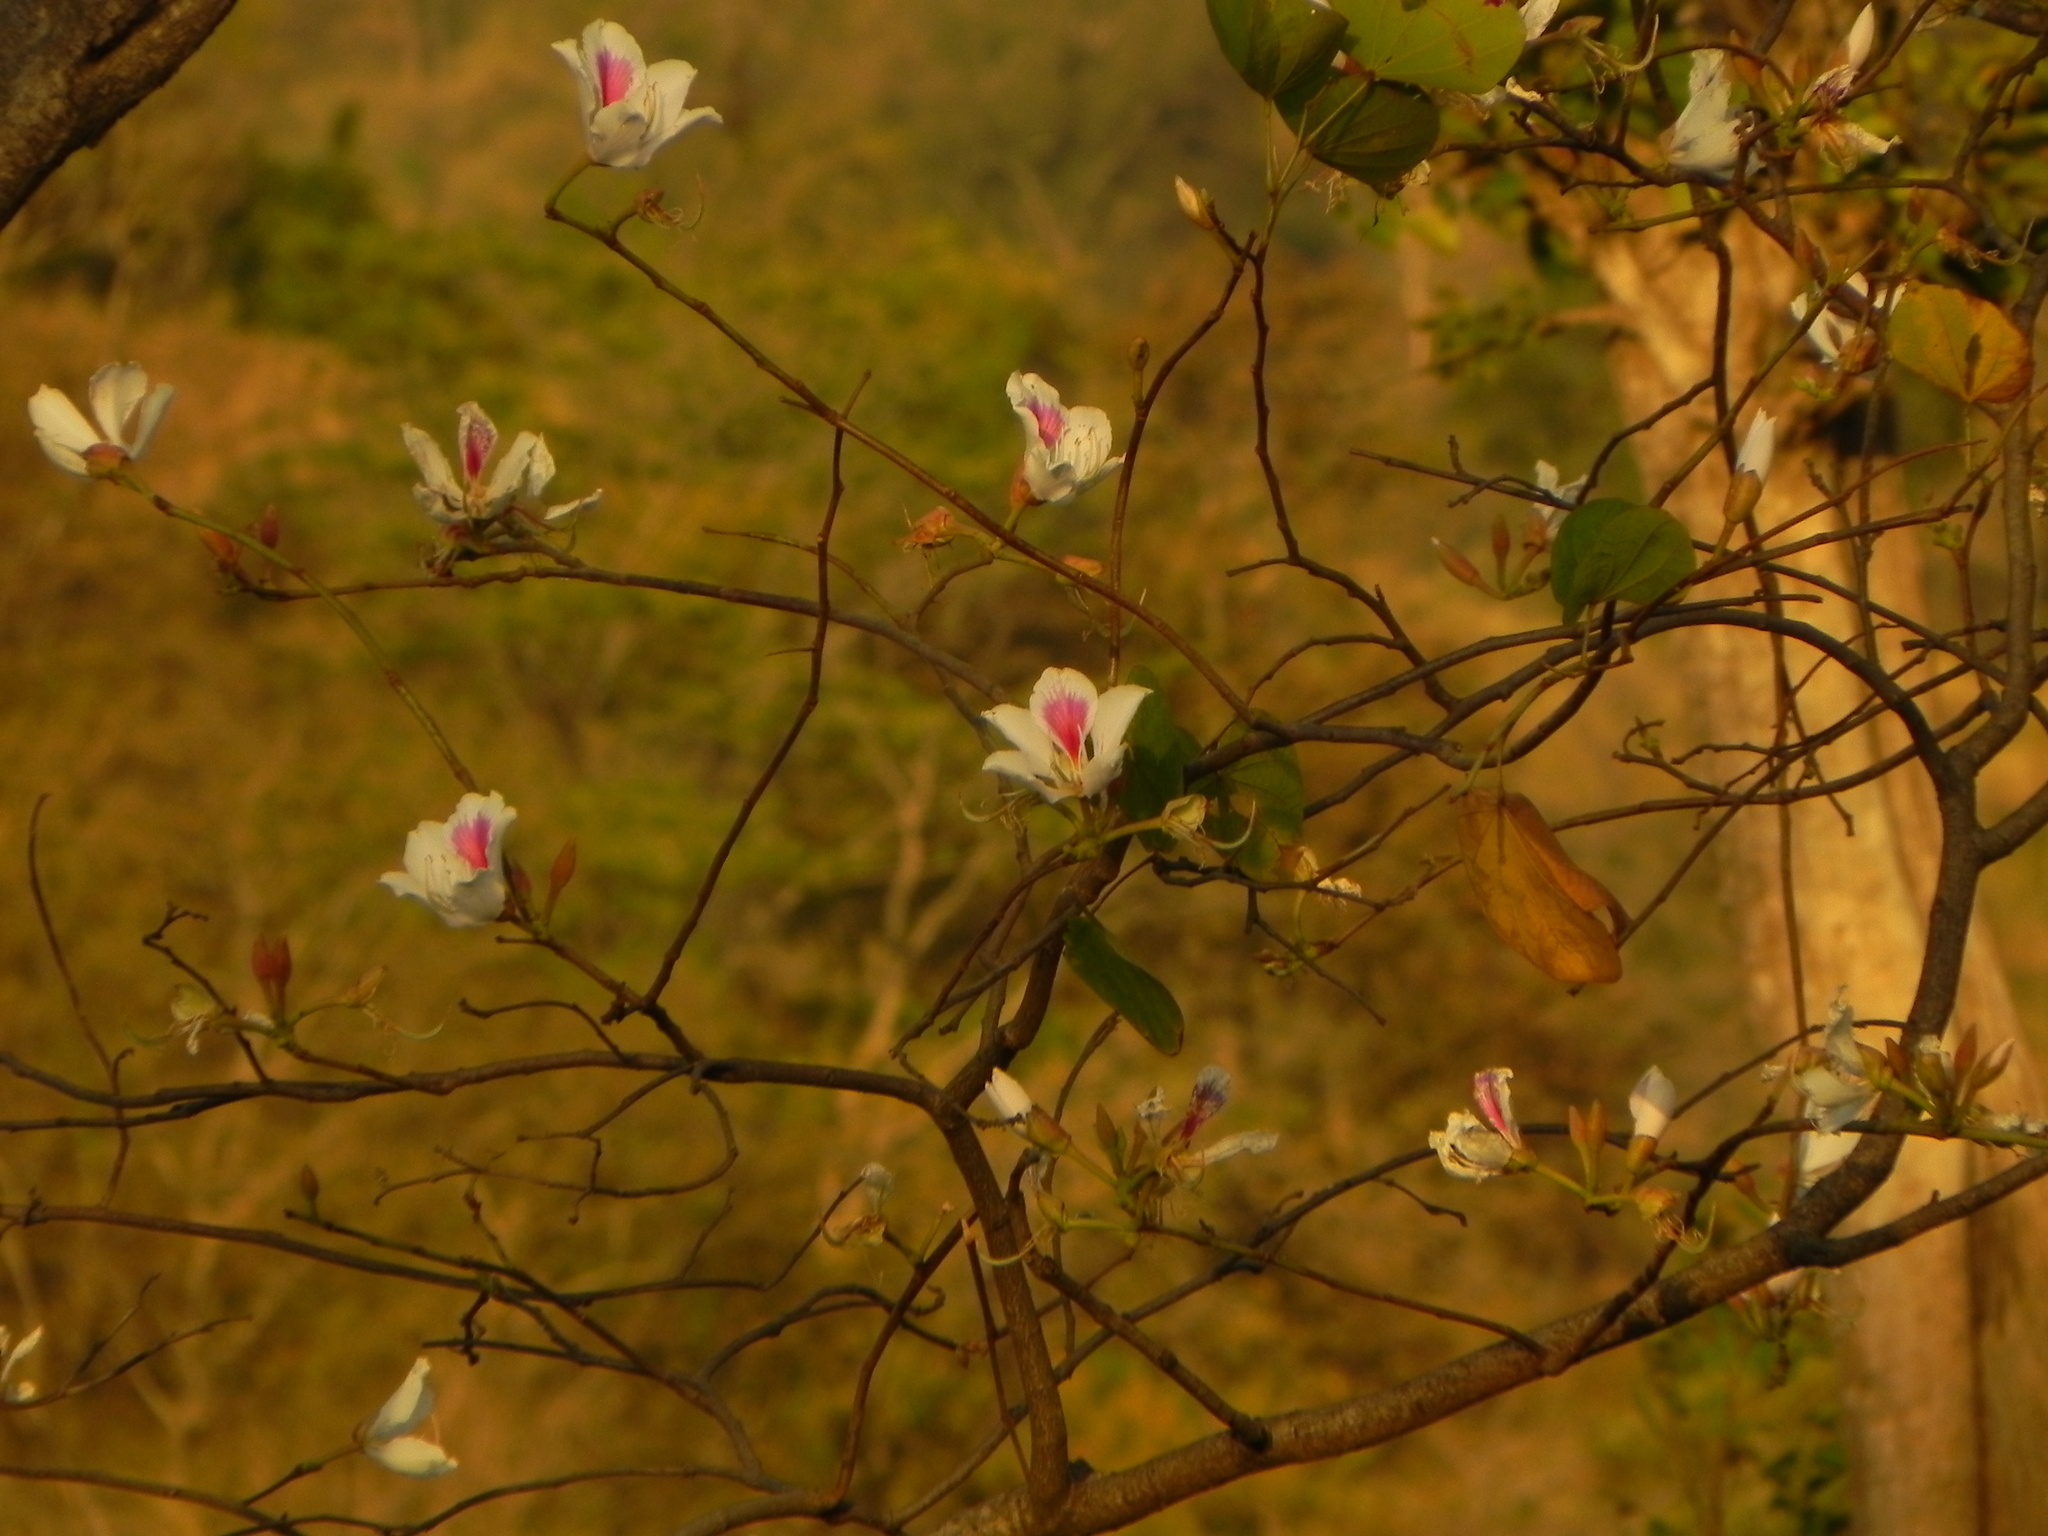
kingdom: Plantae
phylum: Tracheophyta
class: Magnoliopsida
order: Fabales
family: Fabaceae
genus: Bauhinia
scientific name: Bauhinia variegata
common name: Mountain ebony
